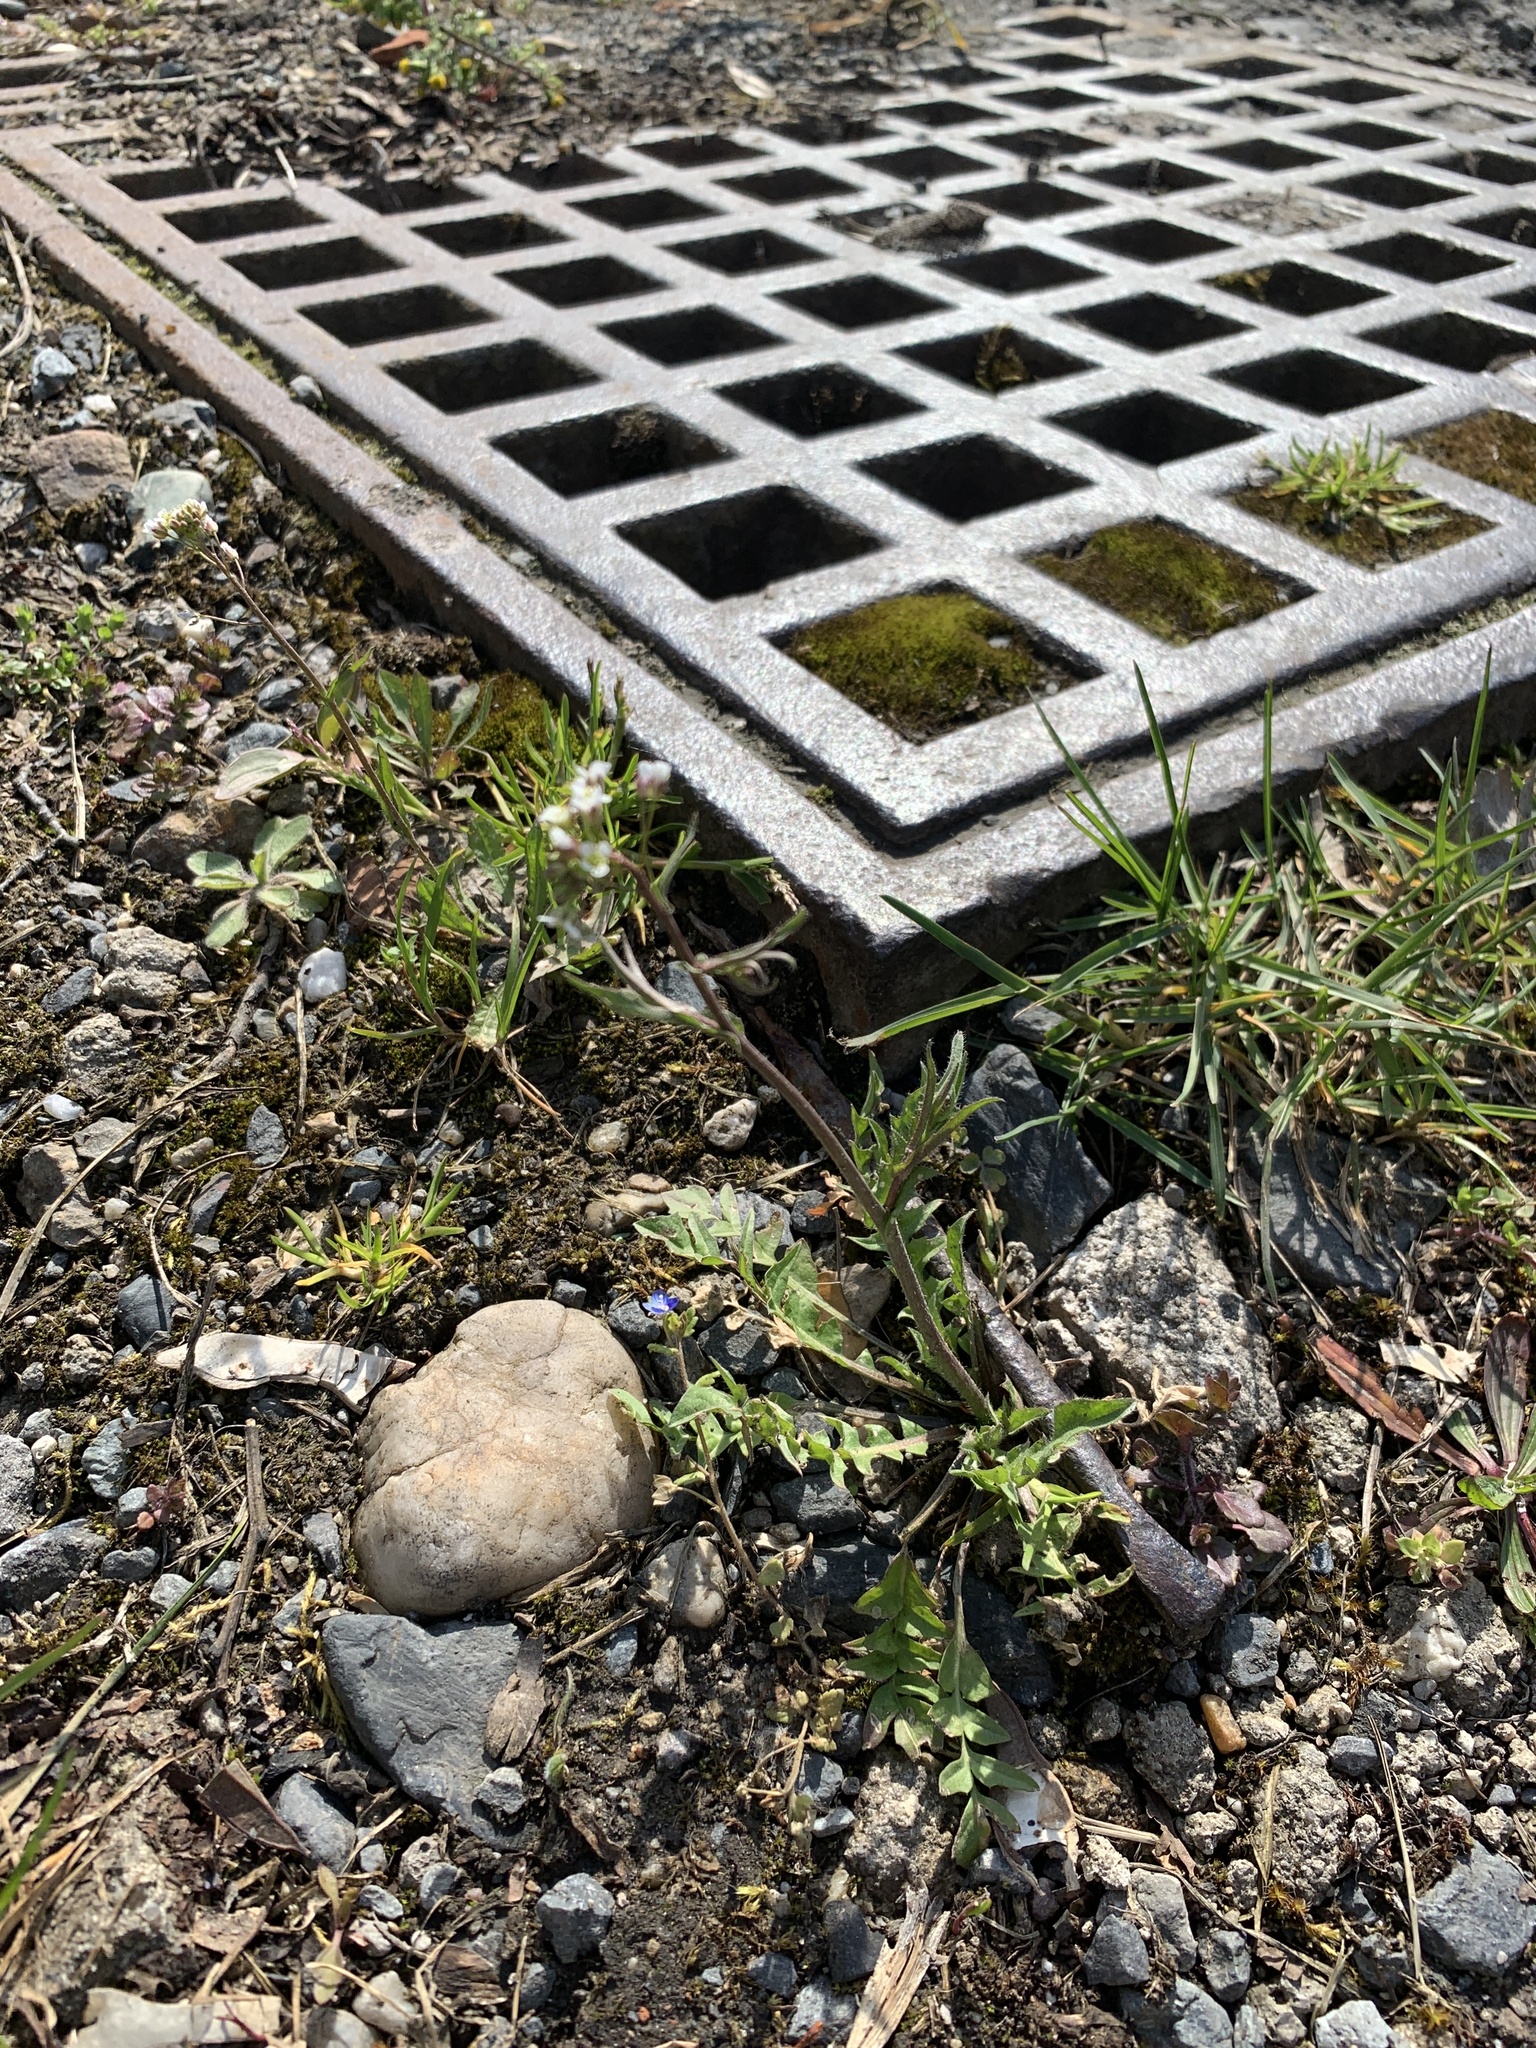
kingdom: Plantae
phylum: Tracheophyta
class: Magnoliopsida
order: Brassicales
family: Brassicaceae
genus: Capsella
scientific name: Capsella bursa-pastoris
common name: Shepherd's purse
